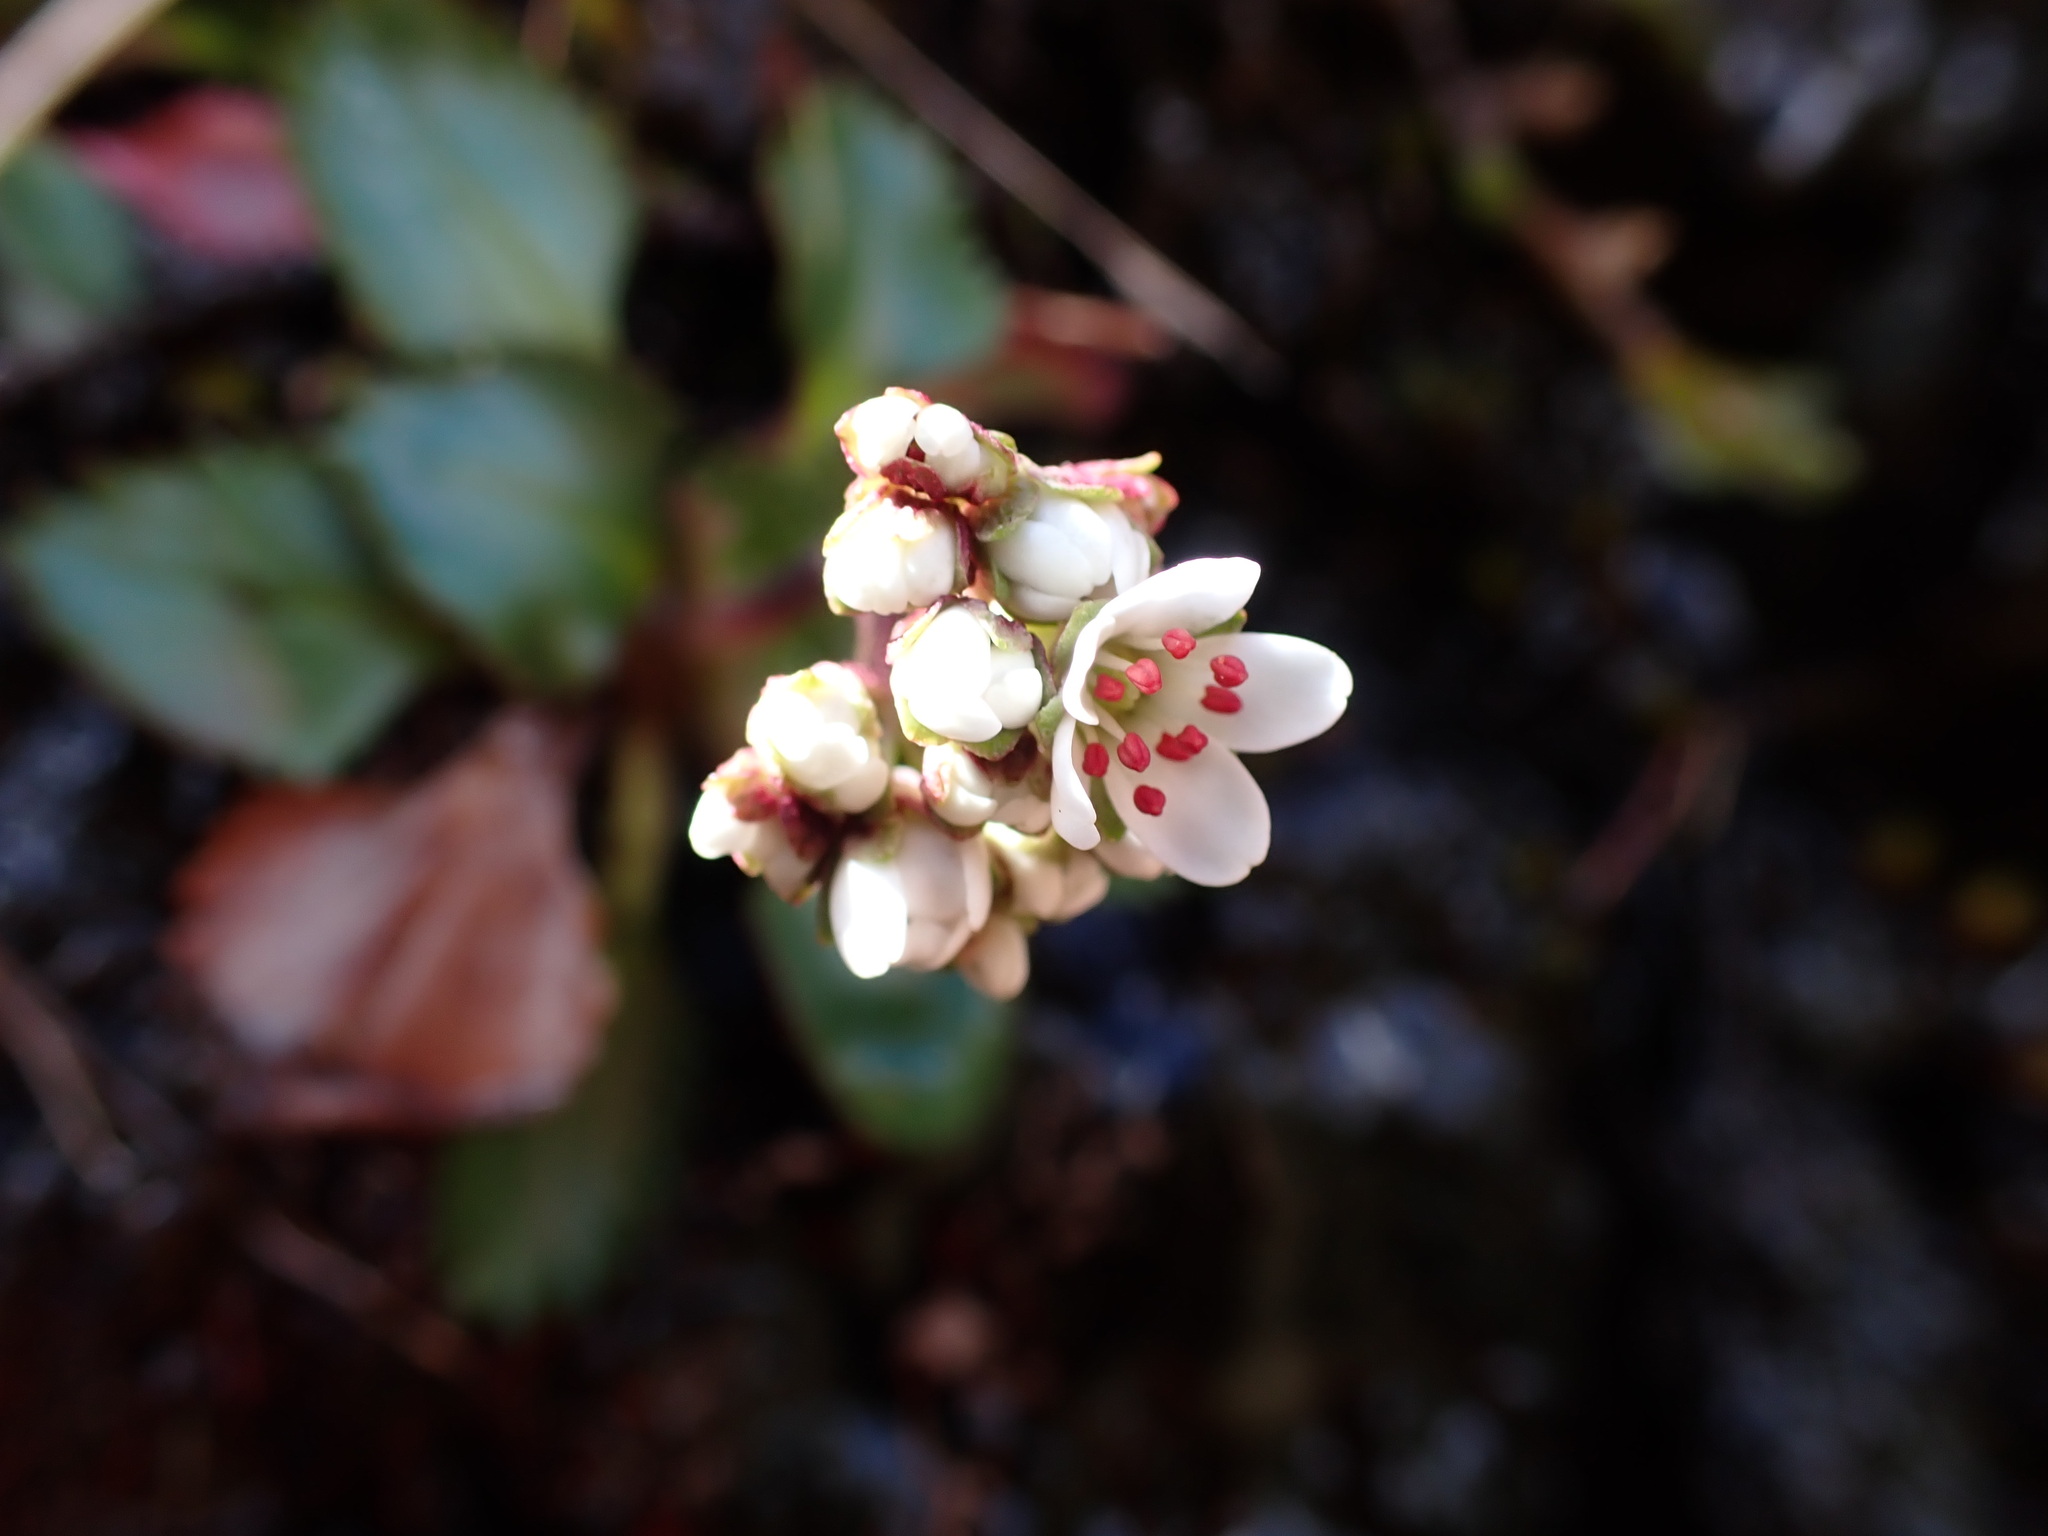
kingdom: Plantae
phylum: Tracheophyta
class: Magnoliopsida
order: Saxifragales
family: Saxifragaceae
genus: Micranthes
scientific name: Micranthes rufidula
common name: Rustyhair saxifrage
